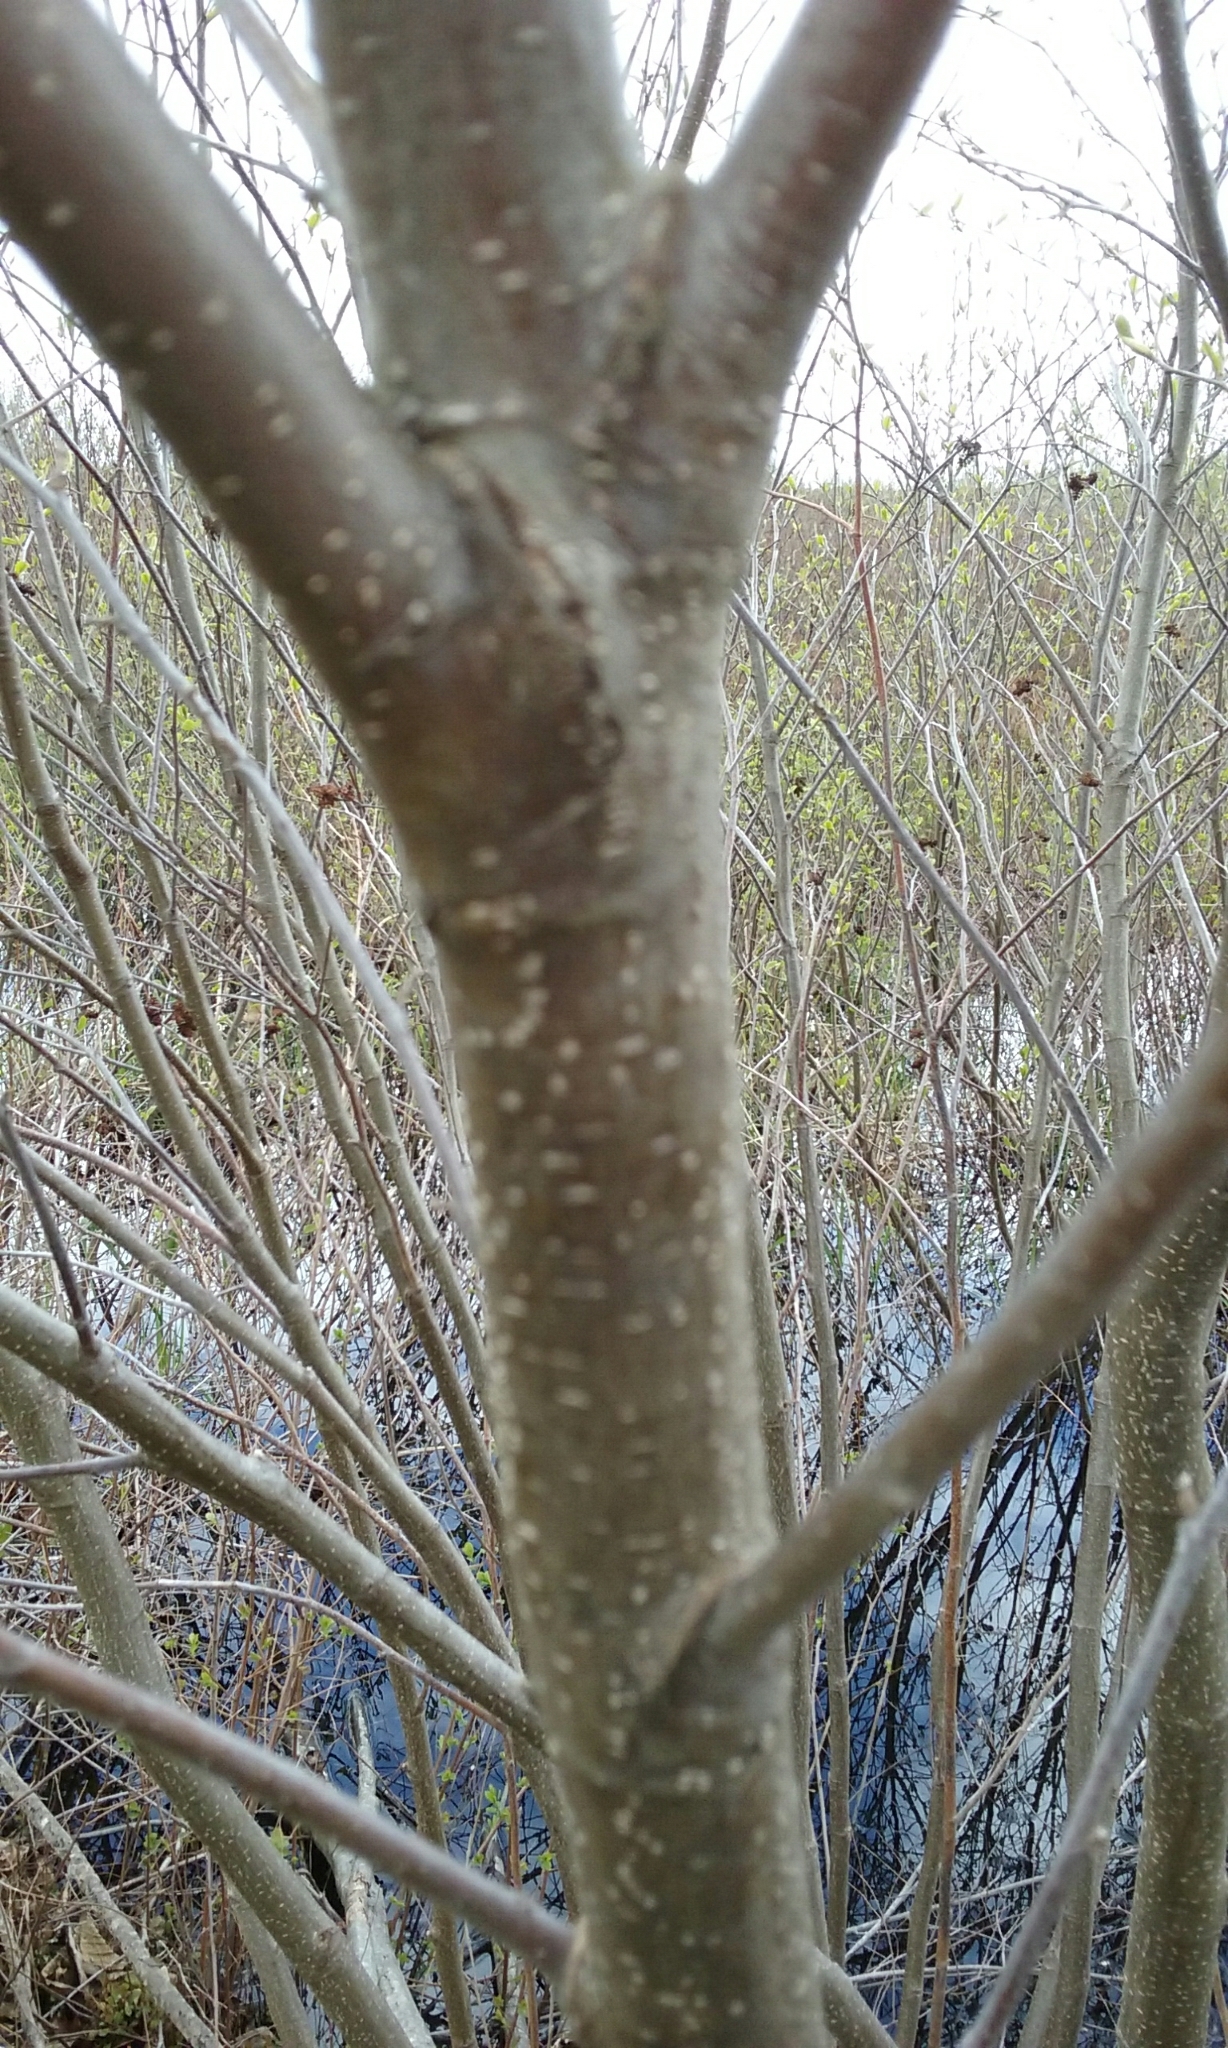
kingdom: Plantae
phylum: Tracheophyta
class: Magnoliopsida
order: Fagales
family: Betulaceae
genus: Alnus
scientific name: Alnus incana
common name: Grey alder
